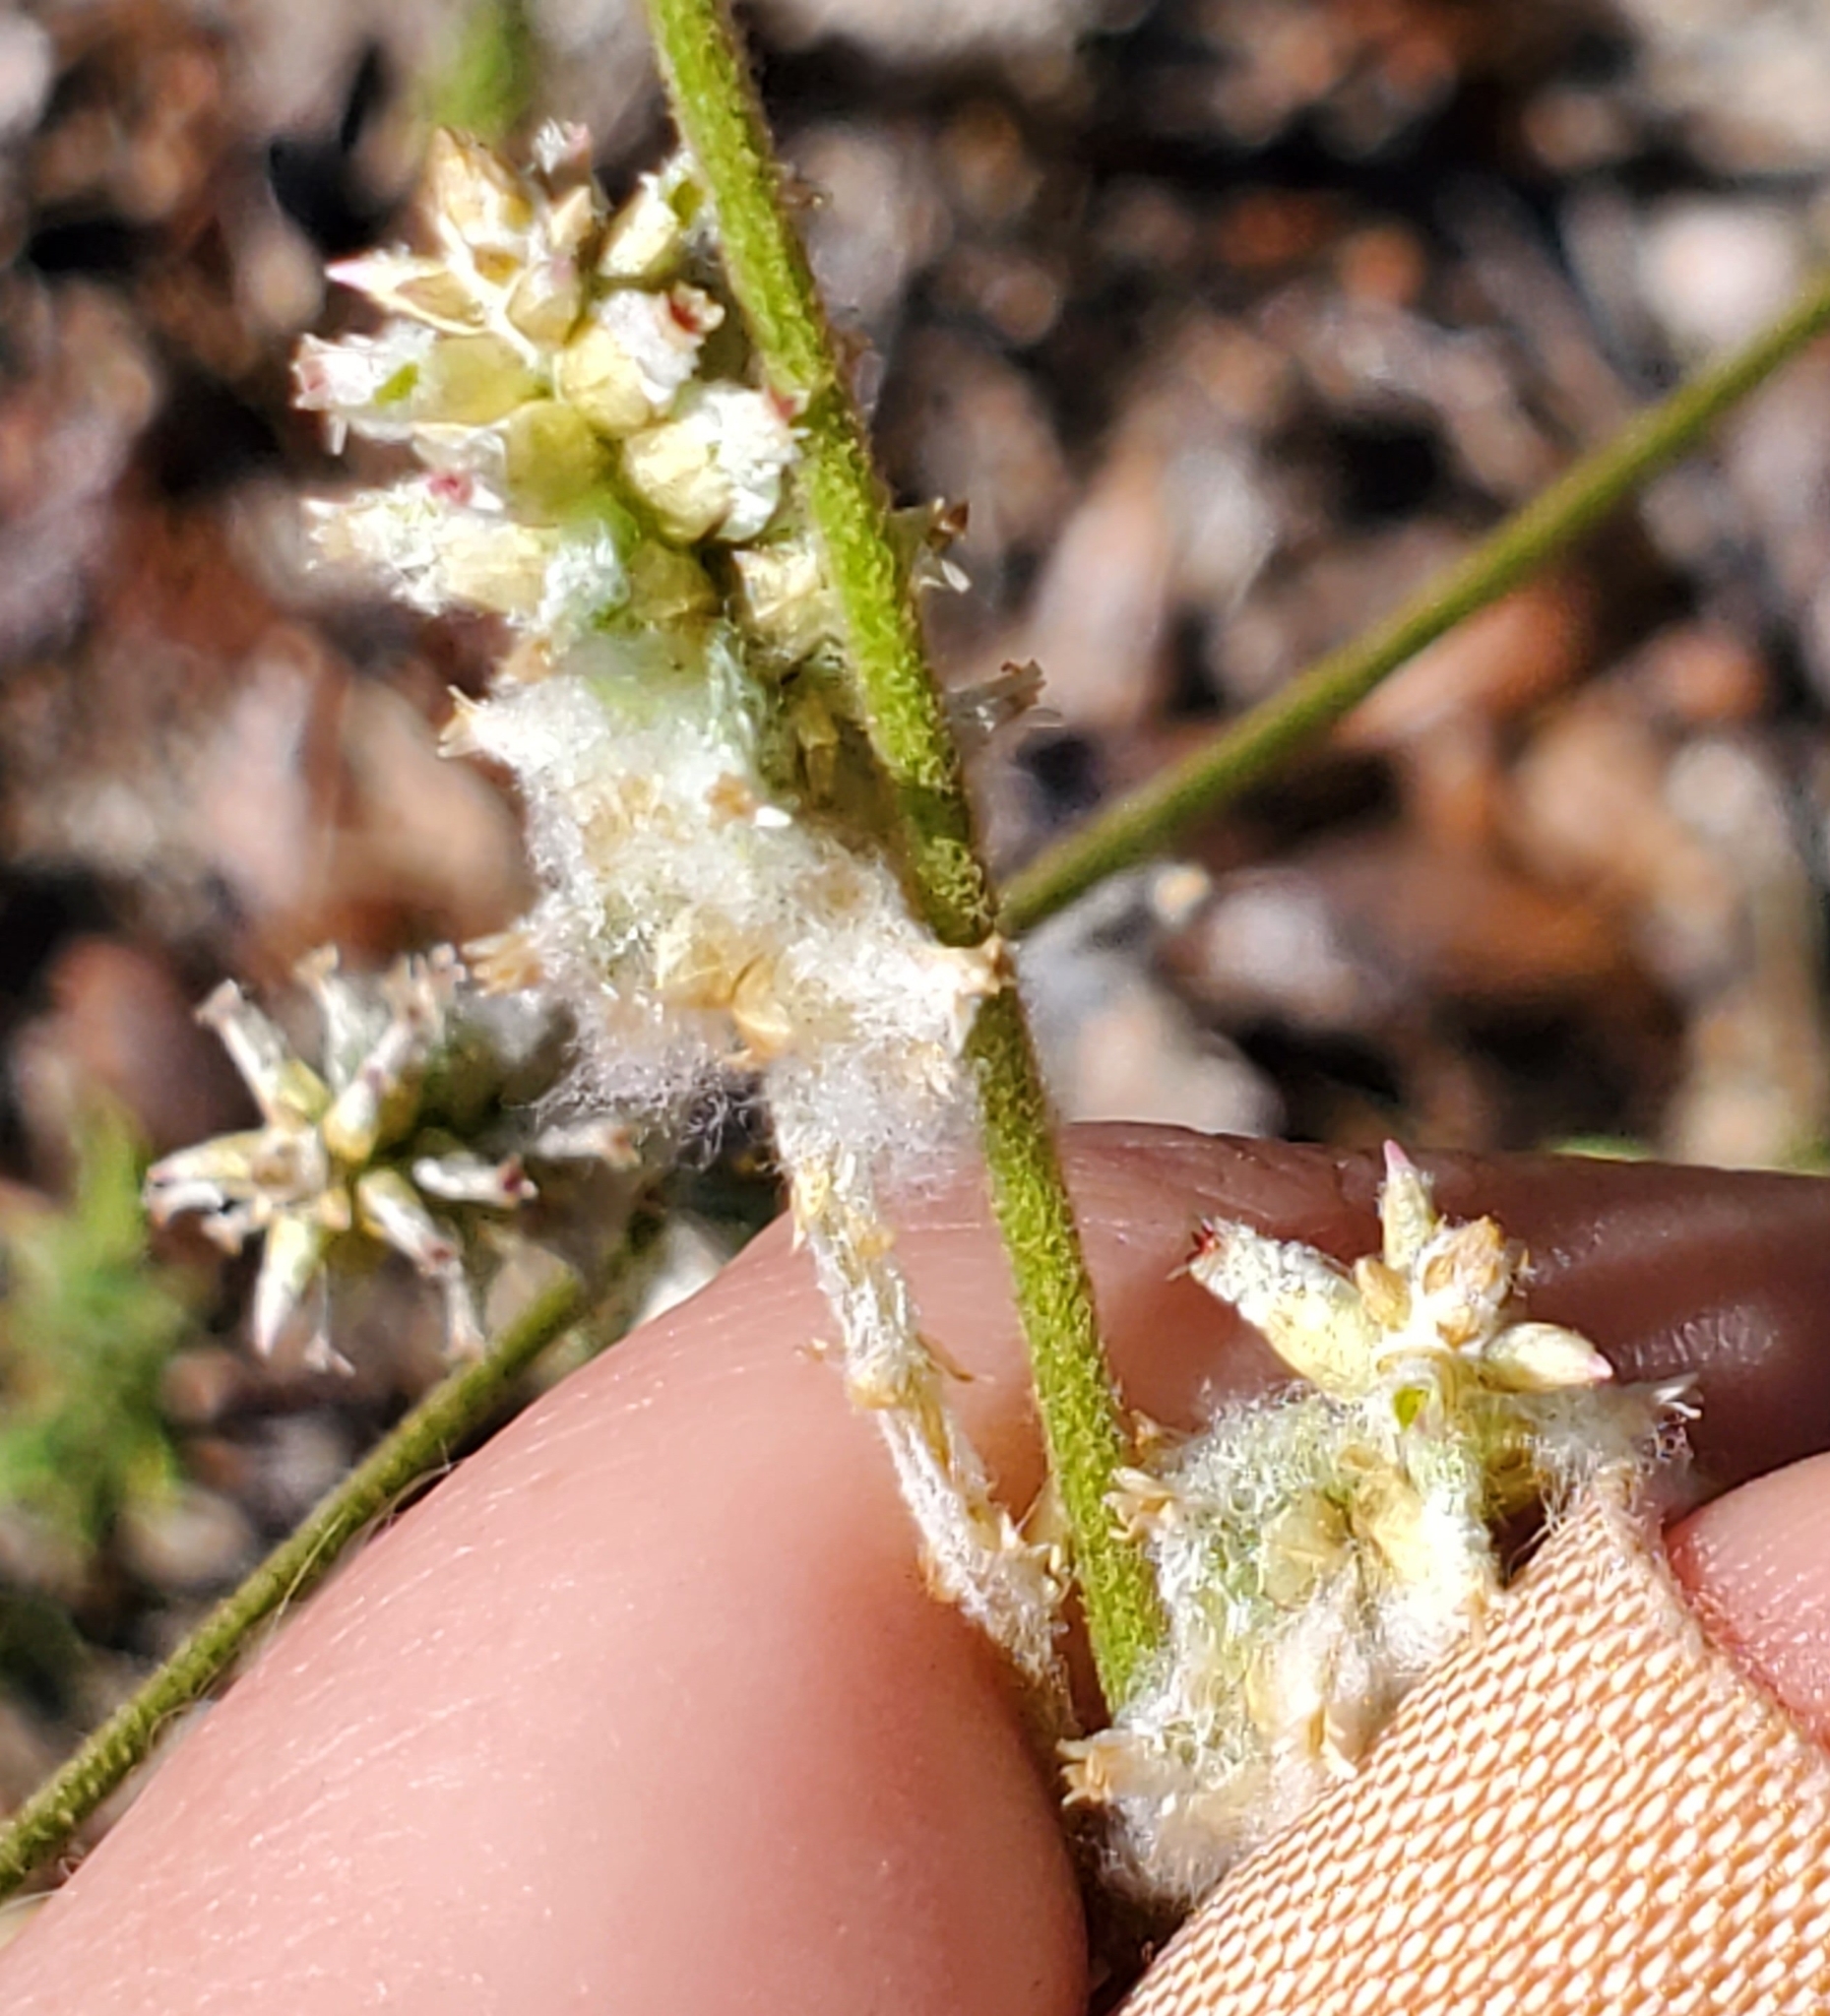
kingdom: Plantae
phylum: Tracheophyta
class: Magnoliopsida
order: Caryophyllales
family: Amaranthaceae
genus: Froelichia
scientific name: Froelichia floridana
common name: Florida snake-cotton
